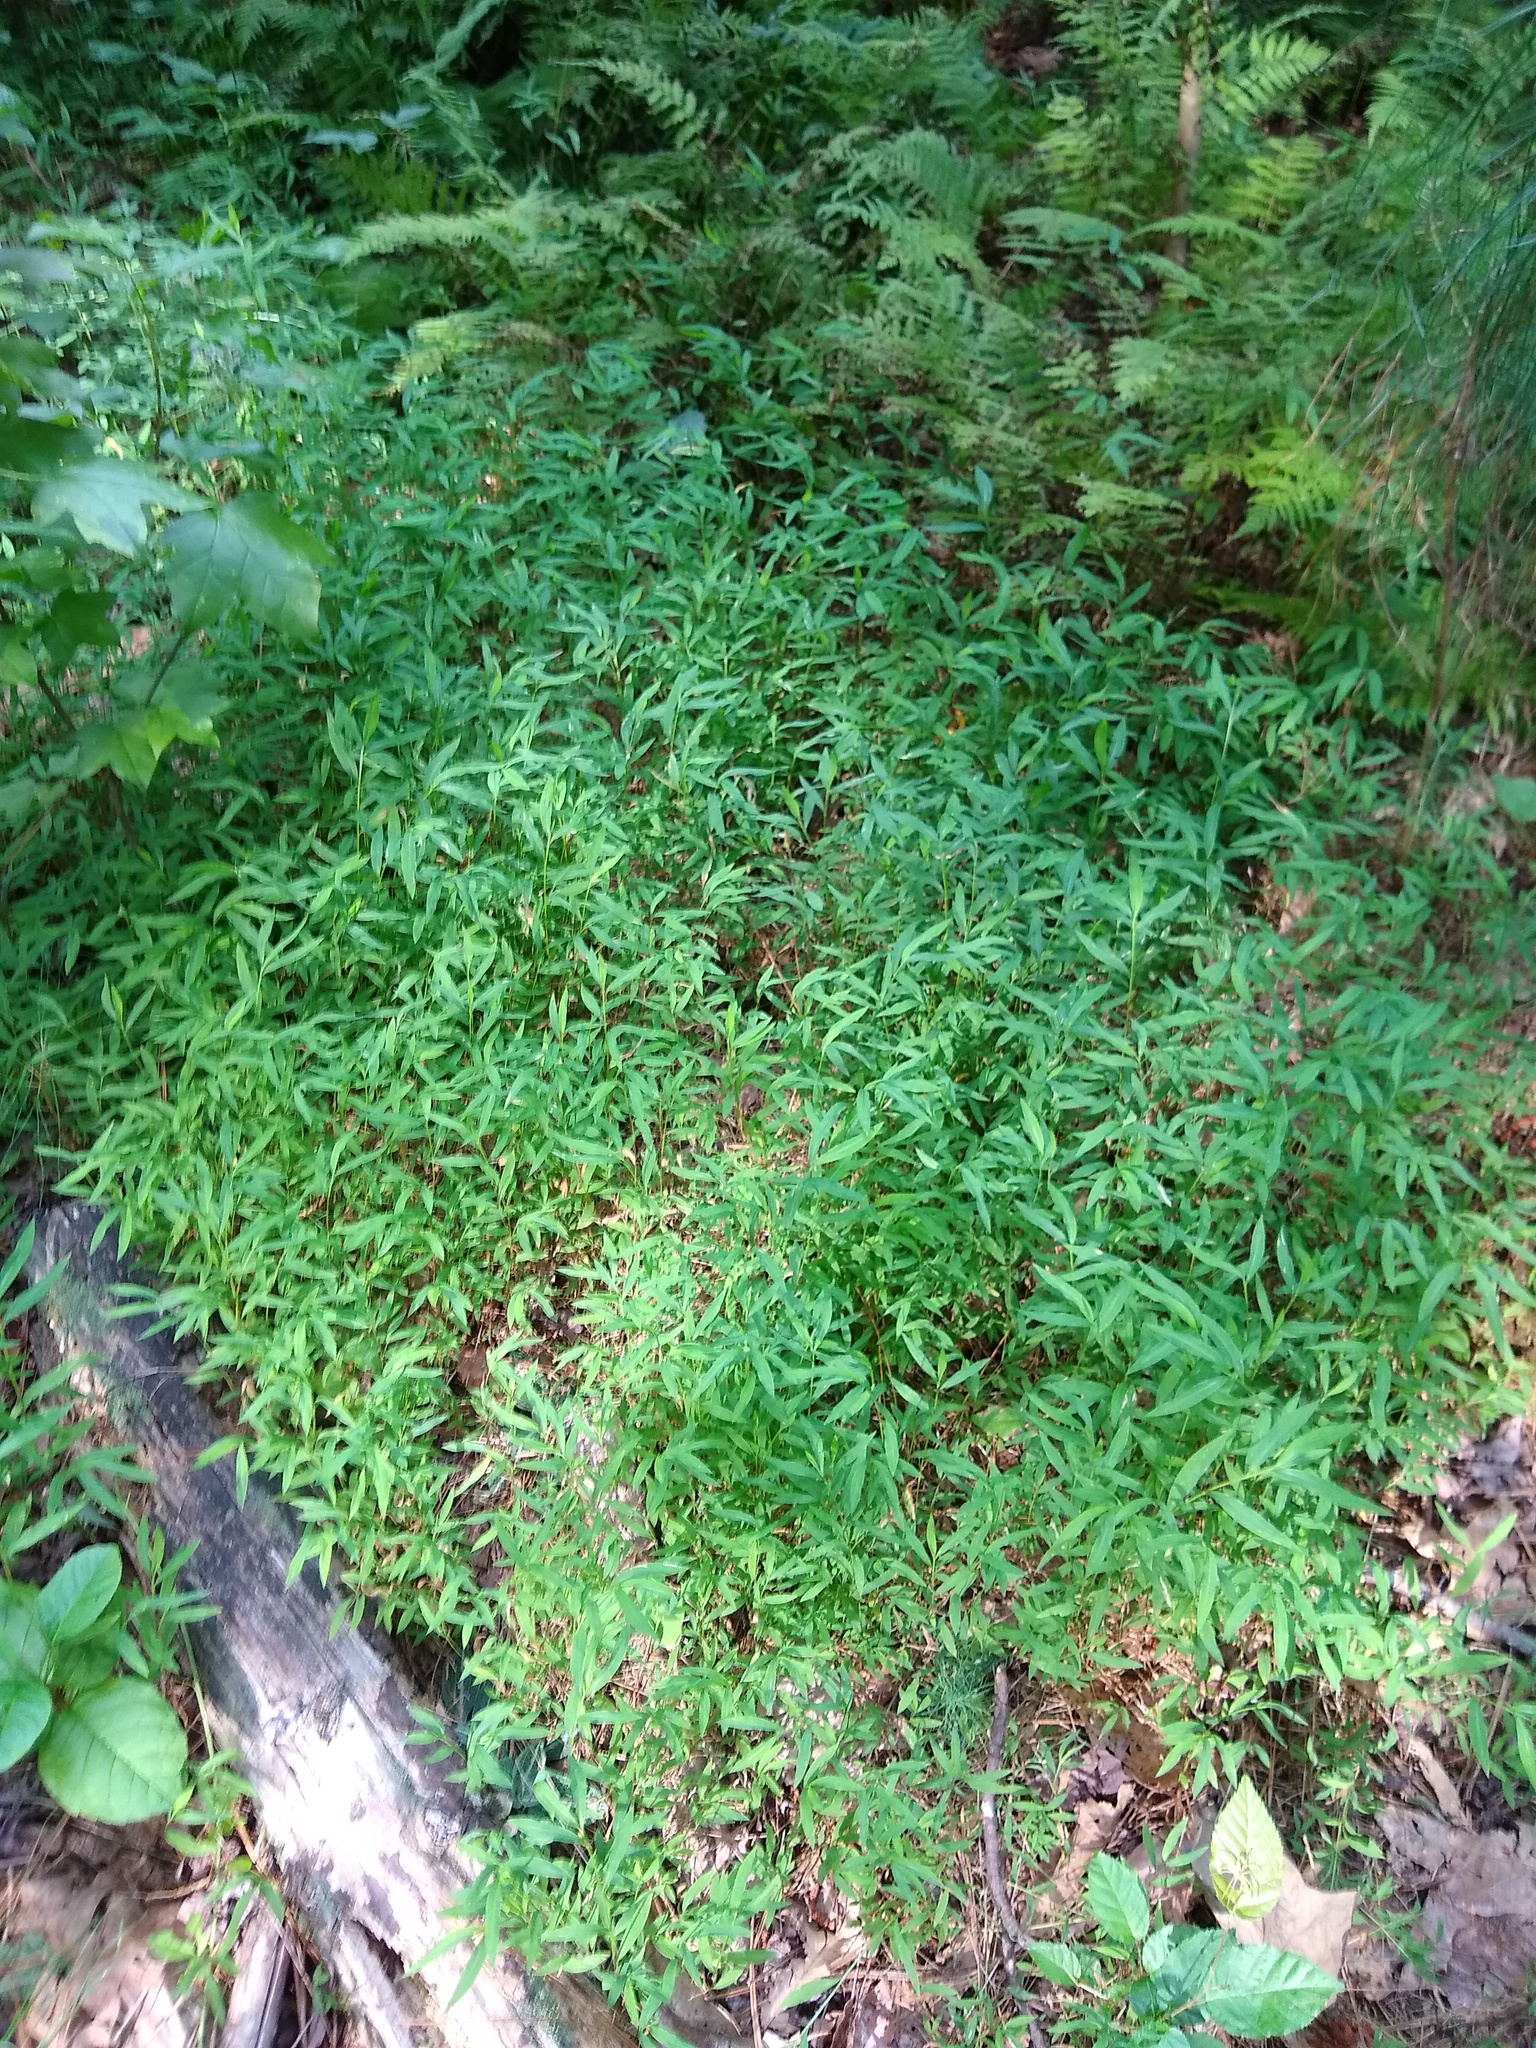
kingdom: Plantae
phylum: Tracheophyta
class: Liliopsida
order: Poales
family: Poaceae
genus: Microstegium
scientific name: Microstegium vimineum
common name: Japanese stiltgrass
